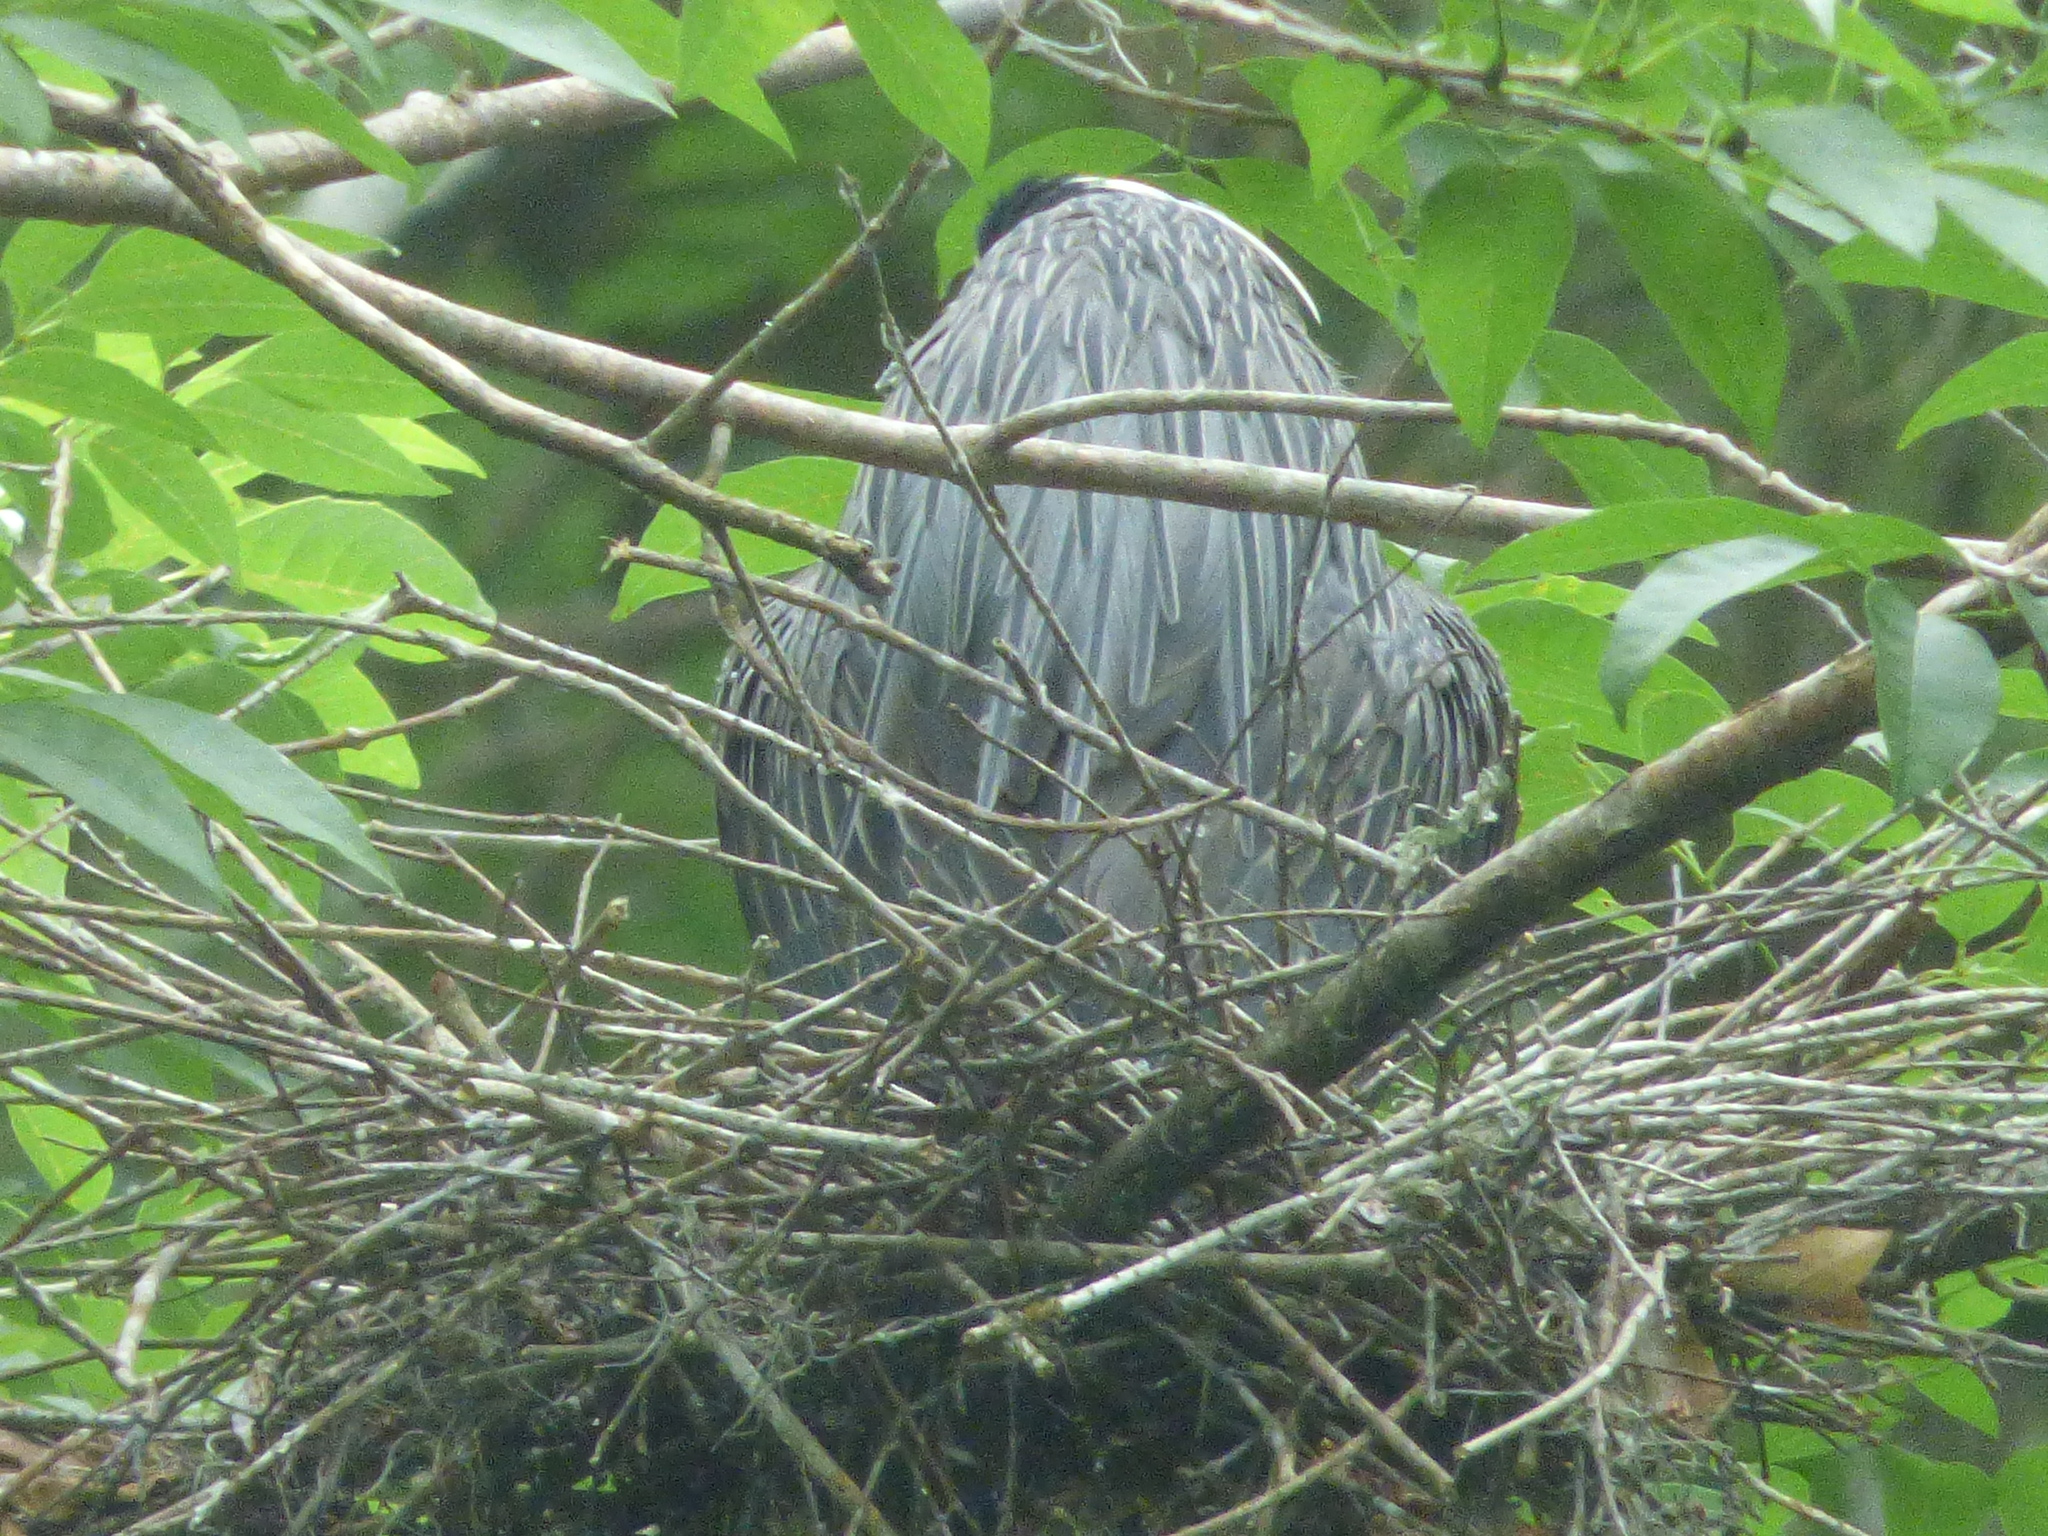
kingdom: Animalia
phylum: Chordata
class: Aves
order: Pelecaniformes
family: Ardeidae
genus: Nyctanassa
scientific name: Nyctanassa violacea
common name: Yellow-crowned night heron
